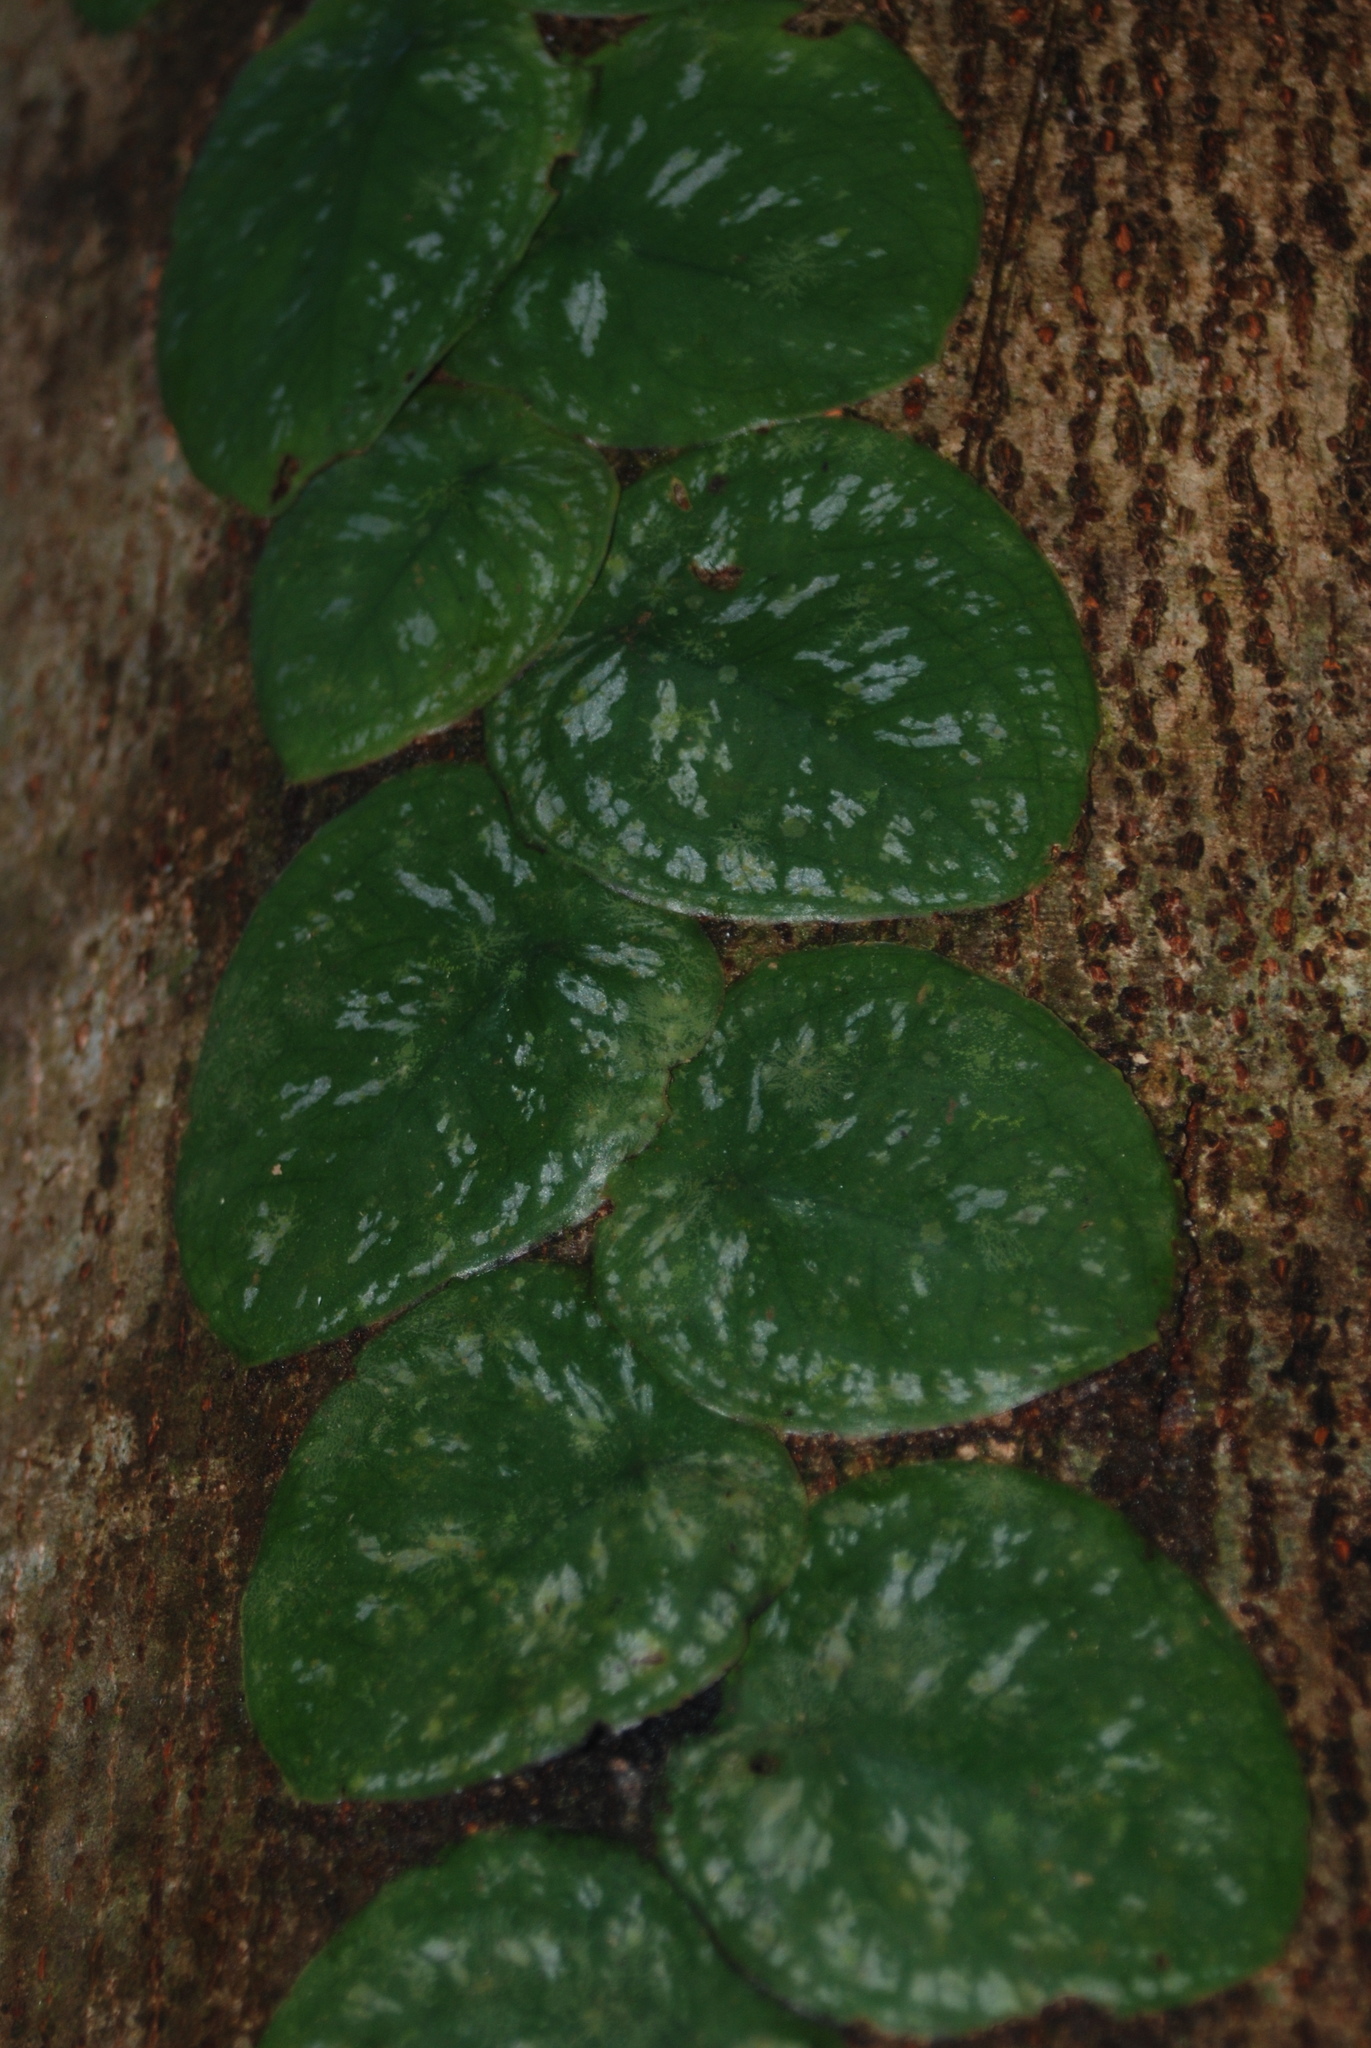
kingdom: Plantae
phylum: Tracheophyta
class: Liliopsida
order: Alismatales
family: Araceae
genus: Monstera
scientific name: Monstera tuberculata
